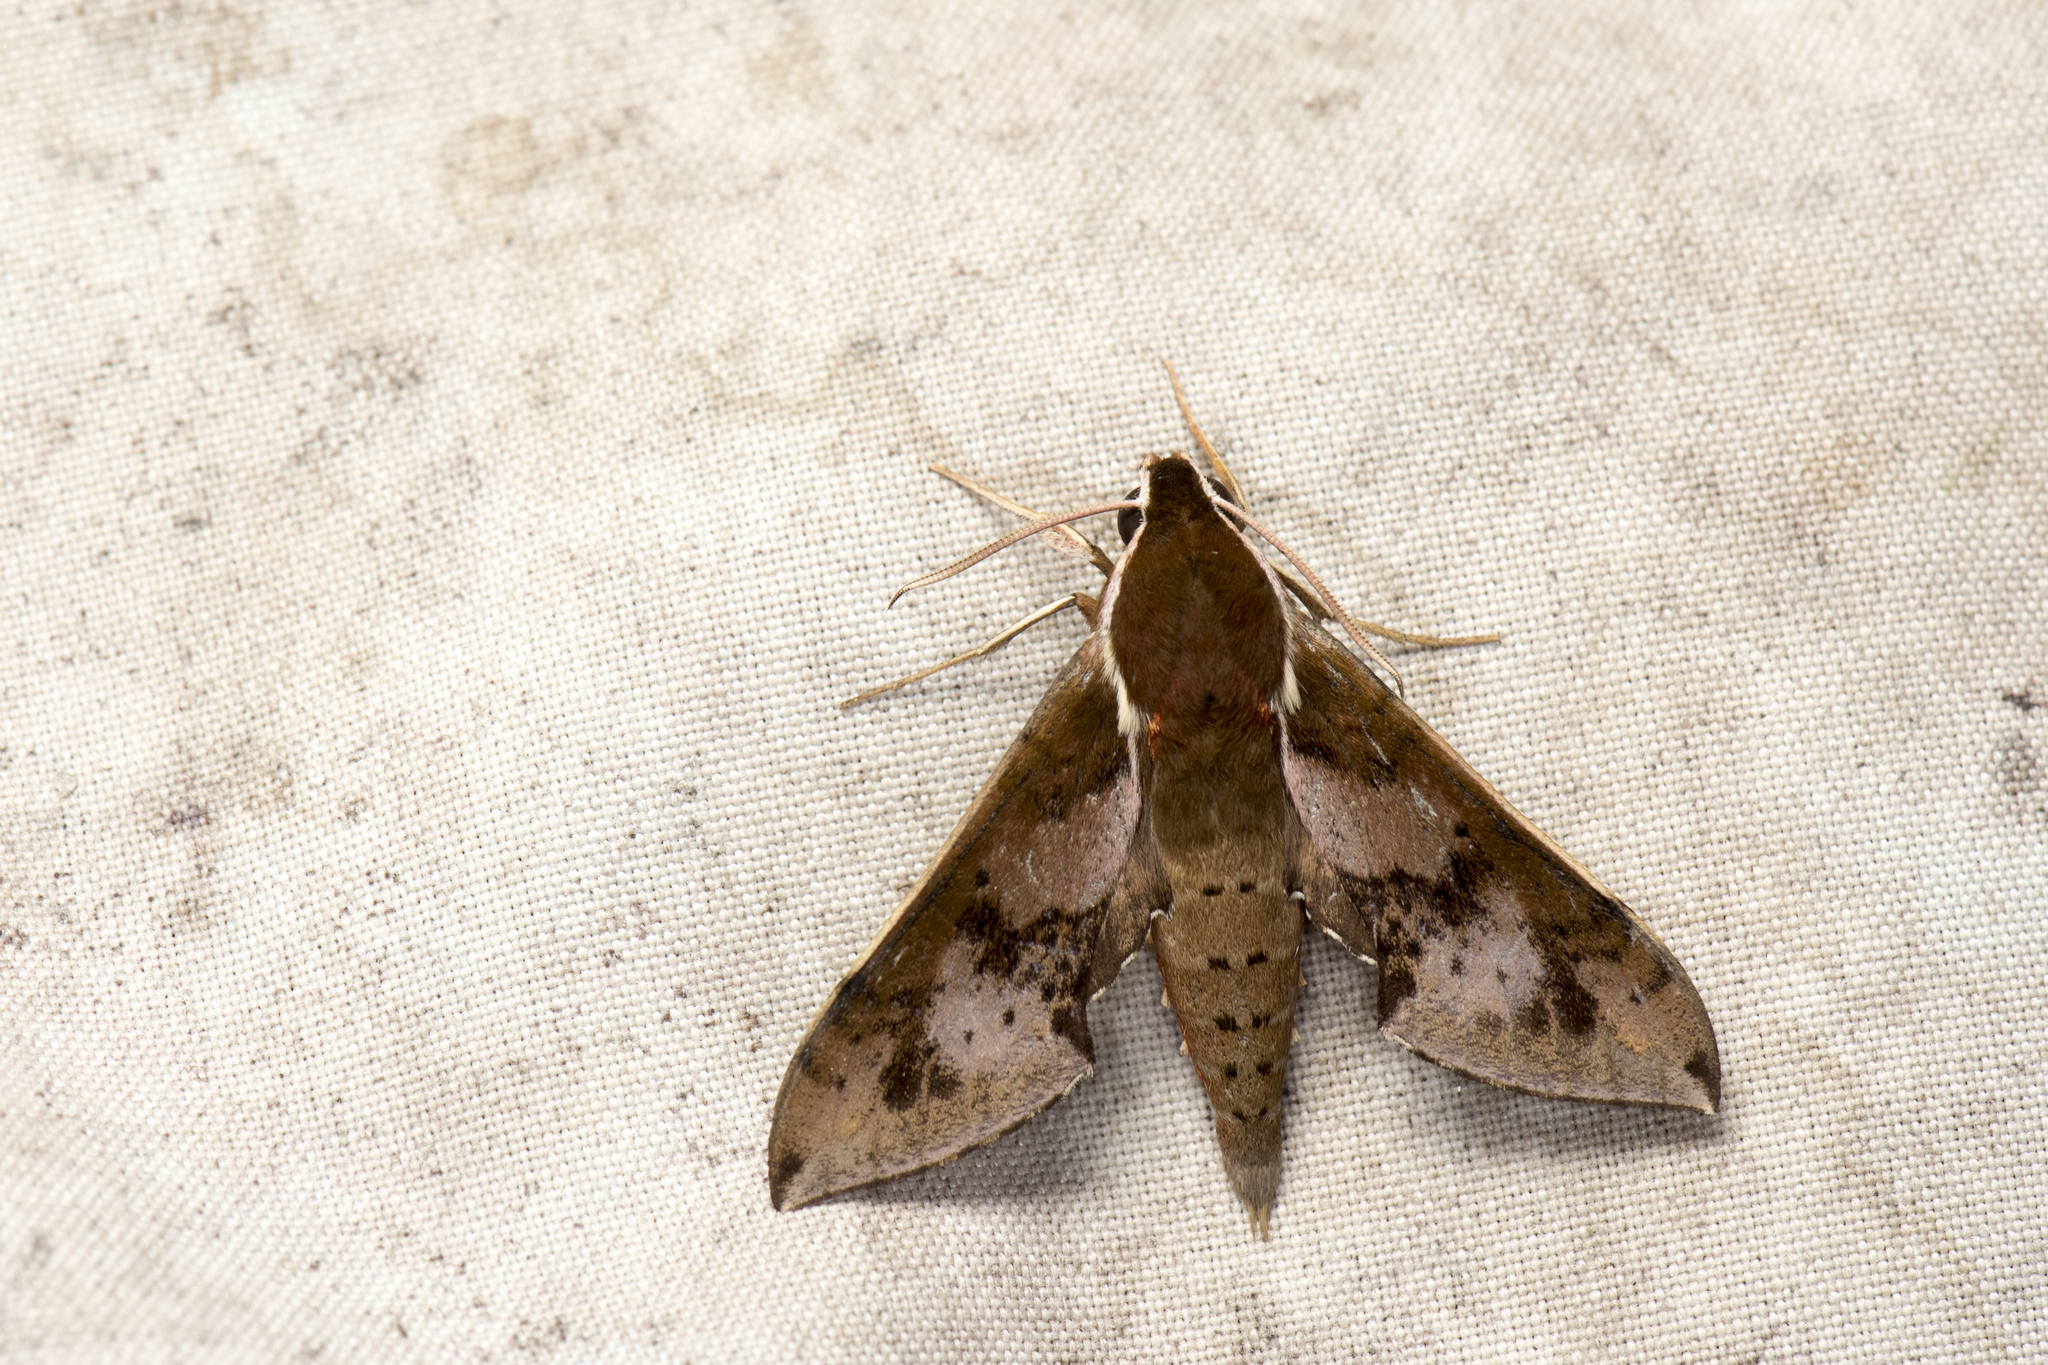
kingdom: Animalia
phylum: Arthropoda
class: Insecta
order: Lepidoptera
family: Sphingidae
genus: Rhagastis
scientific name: Rhagastis binoculata
